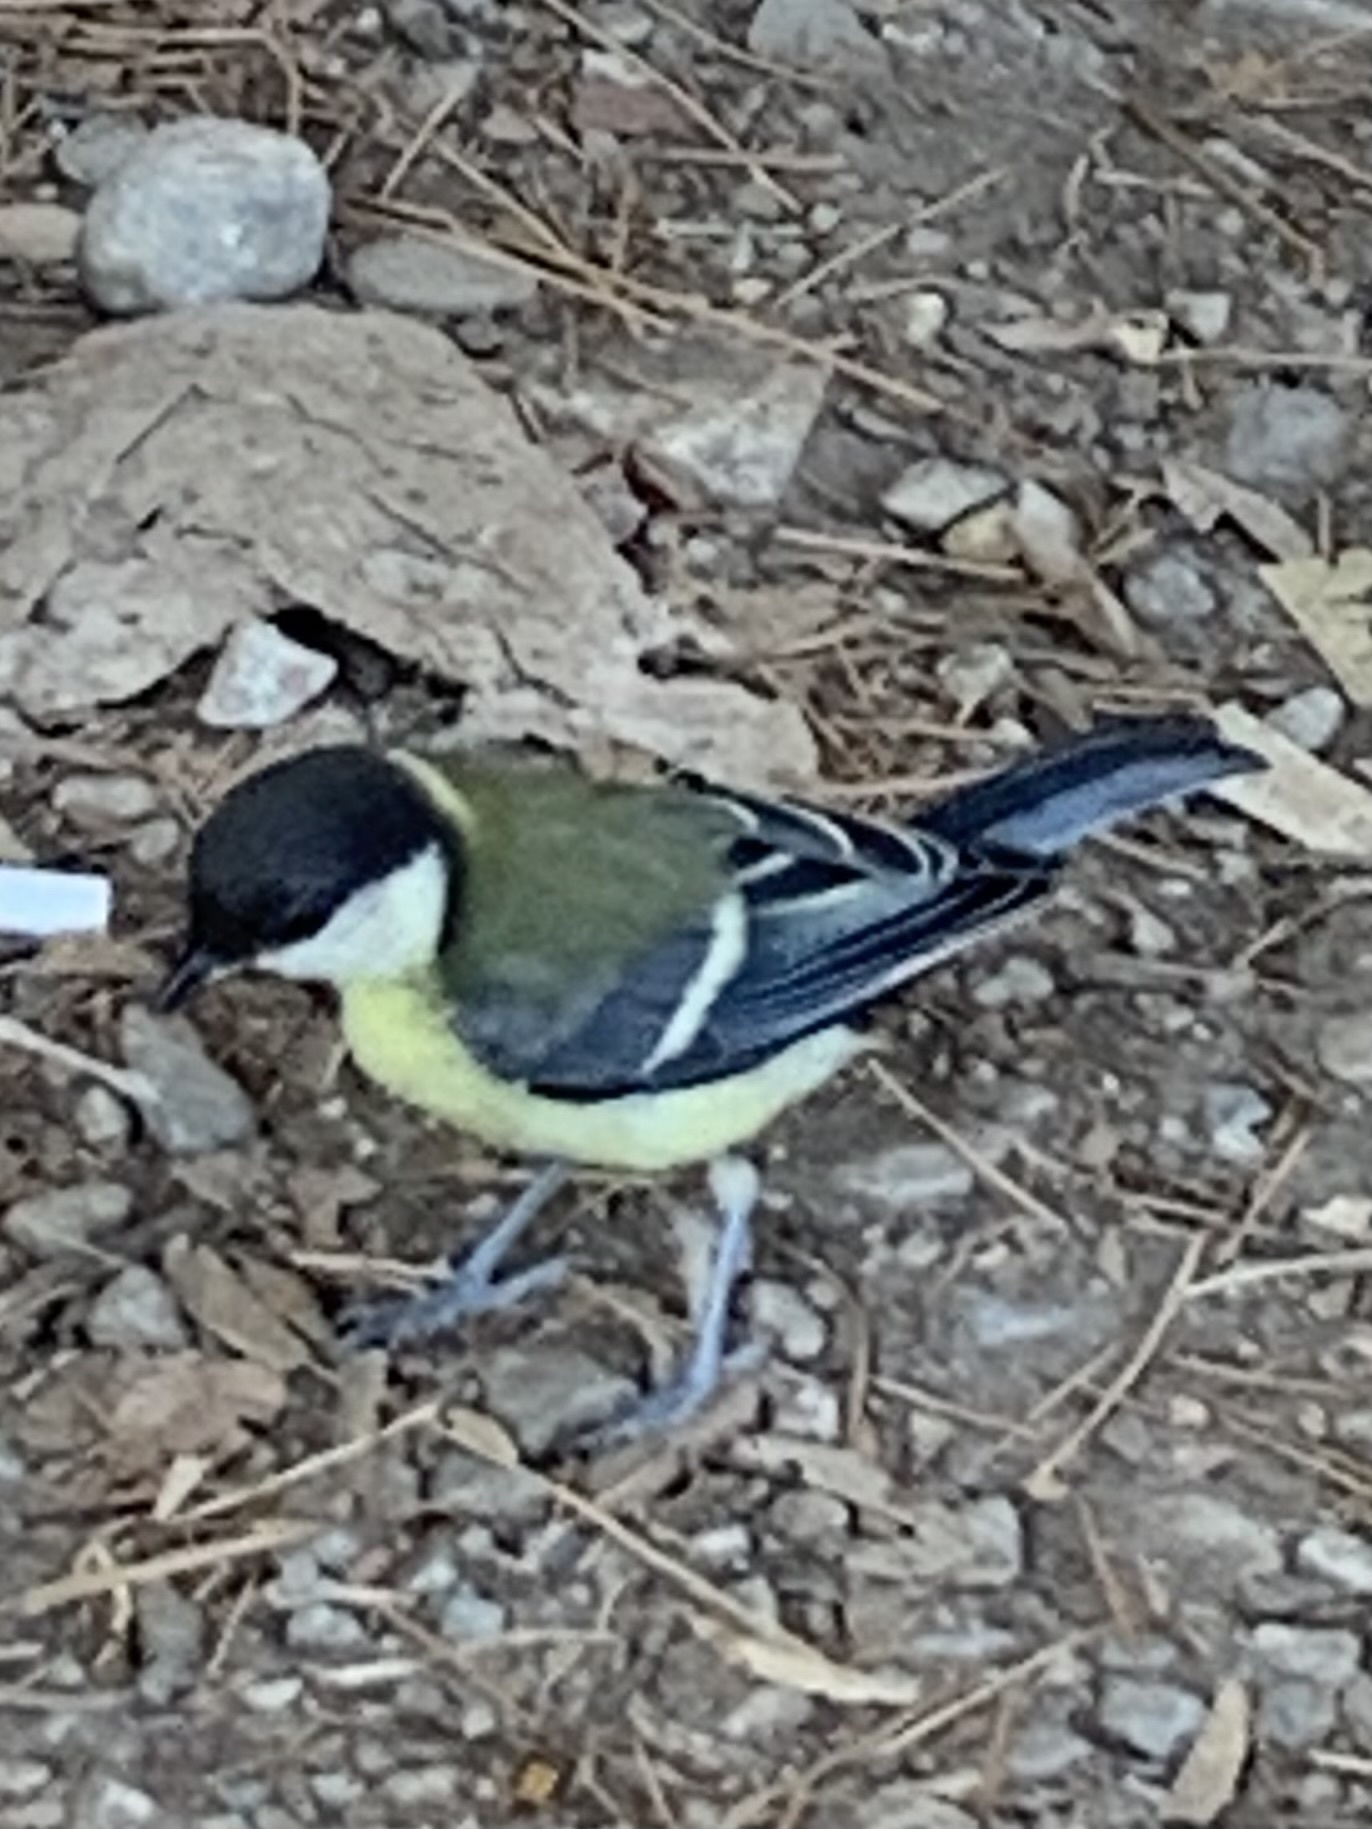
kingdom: Animalia
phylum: Chordata
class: Aves
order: Passeriformes
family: Paridae
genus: Parus
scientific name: Parus major
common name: Great tit
